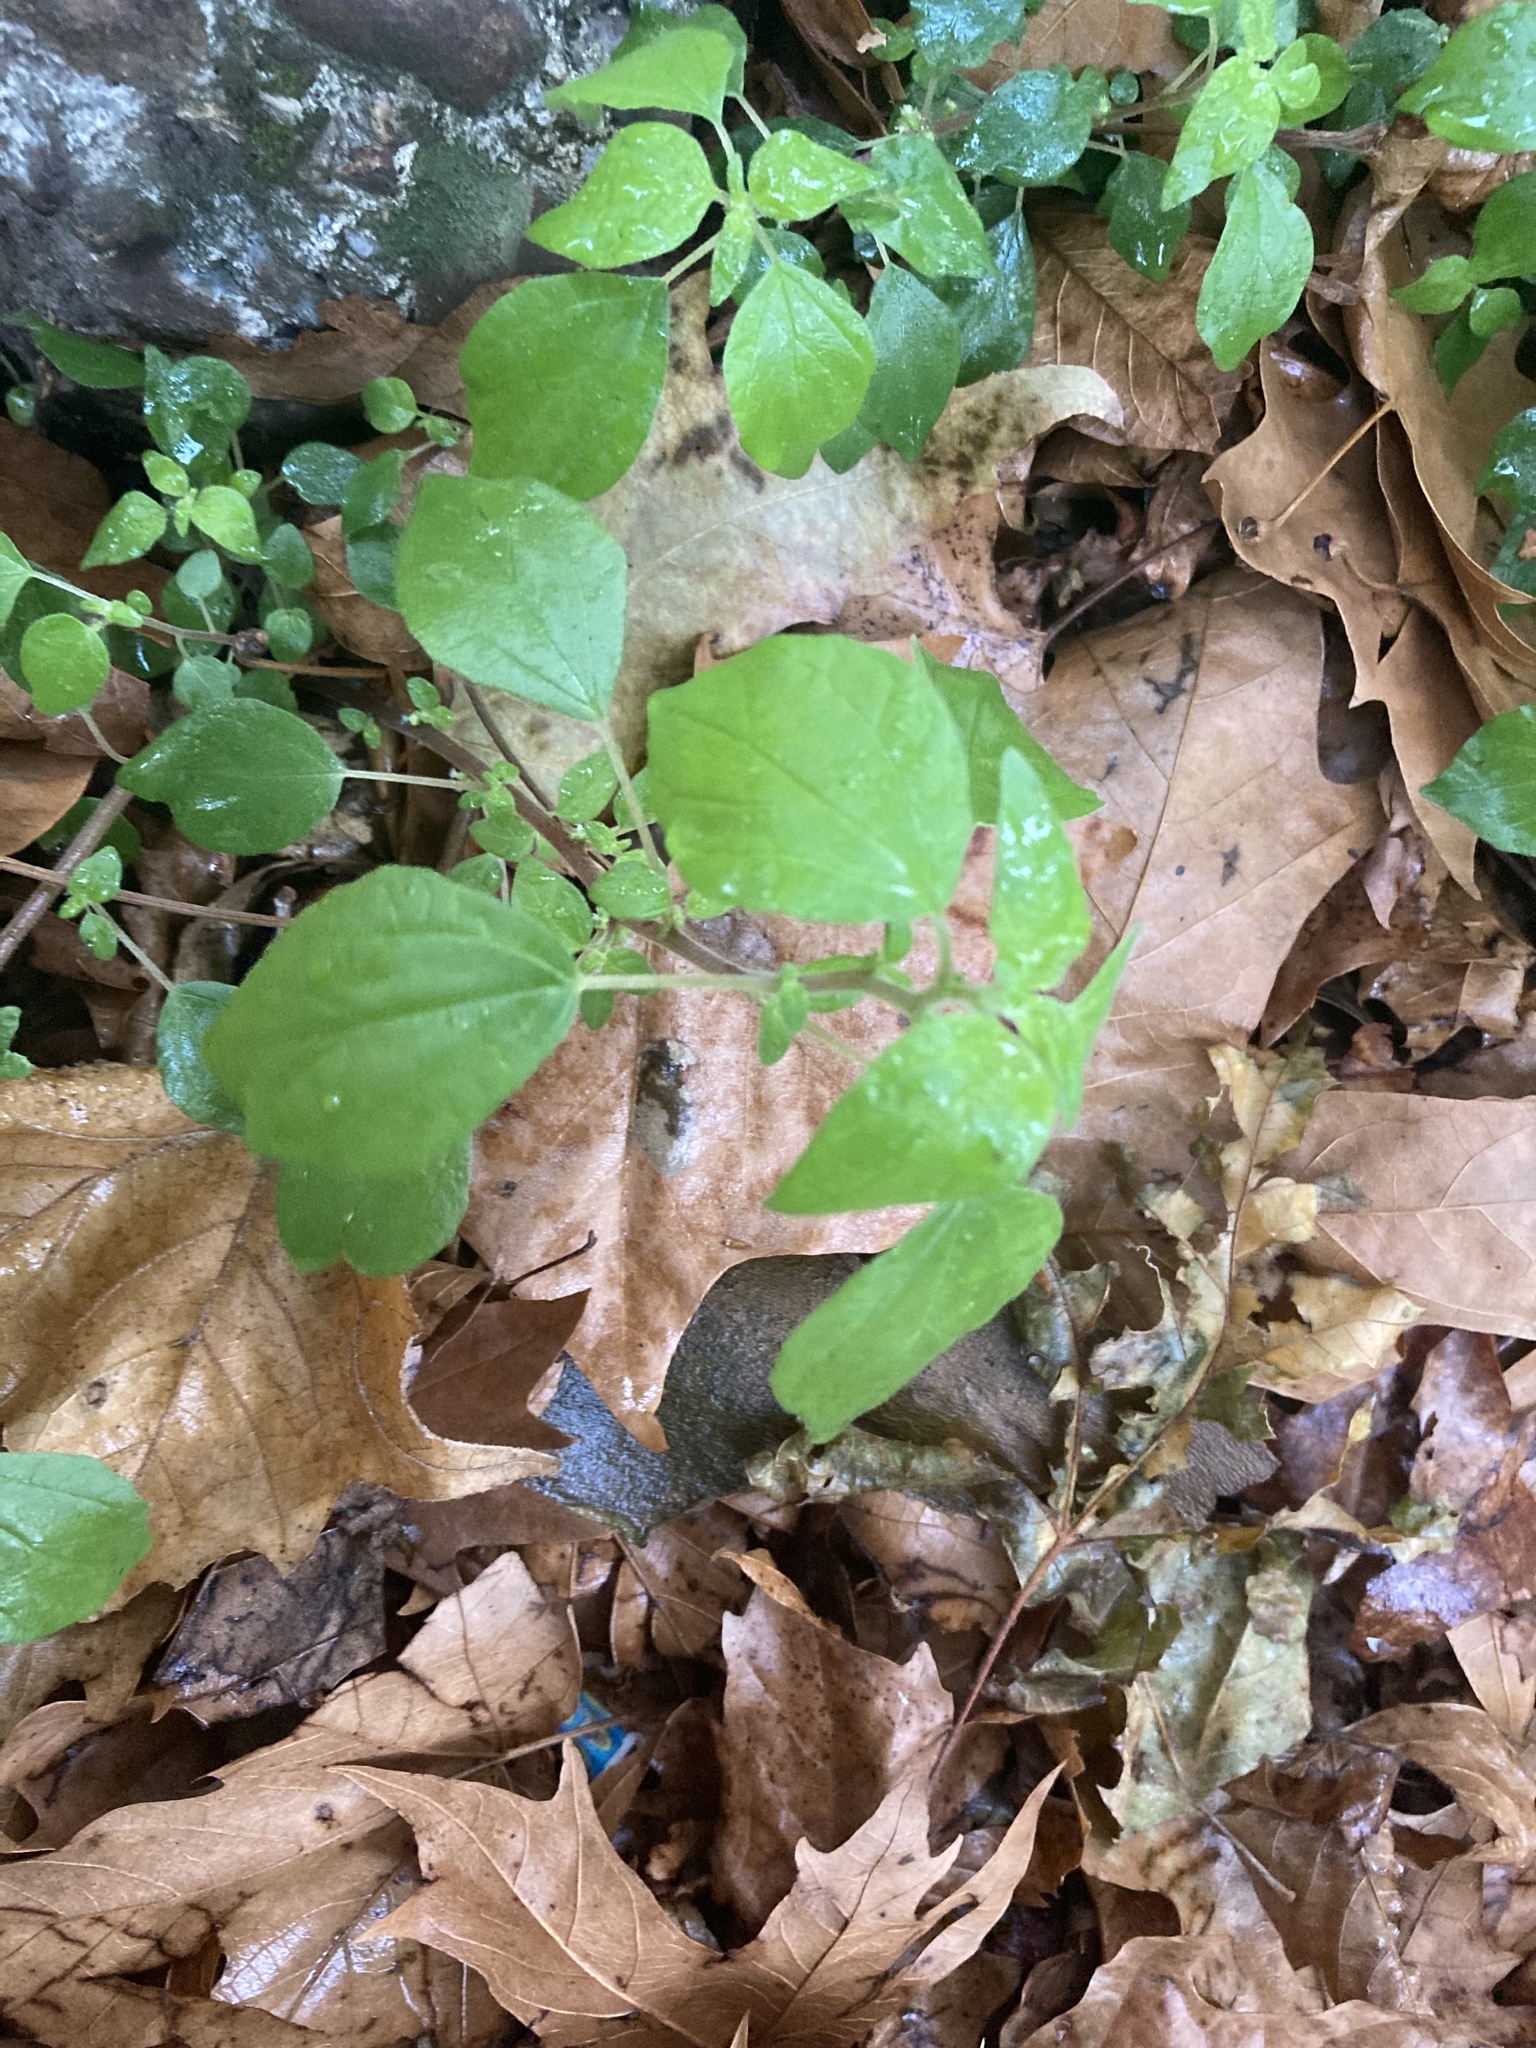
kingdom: Plantae
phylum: Tracheophyta
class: Magnoliopsida
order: Rosales
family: Urticaceae
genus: Parietaria
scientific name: Parietaria officinalis
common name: Eastern pellitory-of-the-wall
